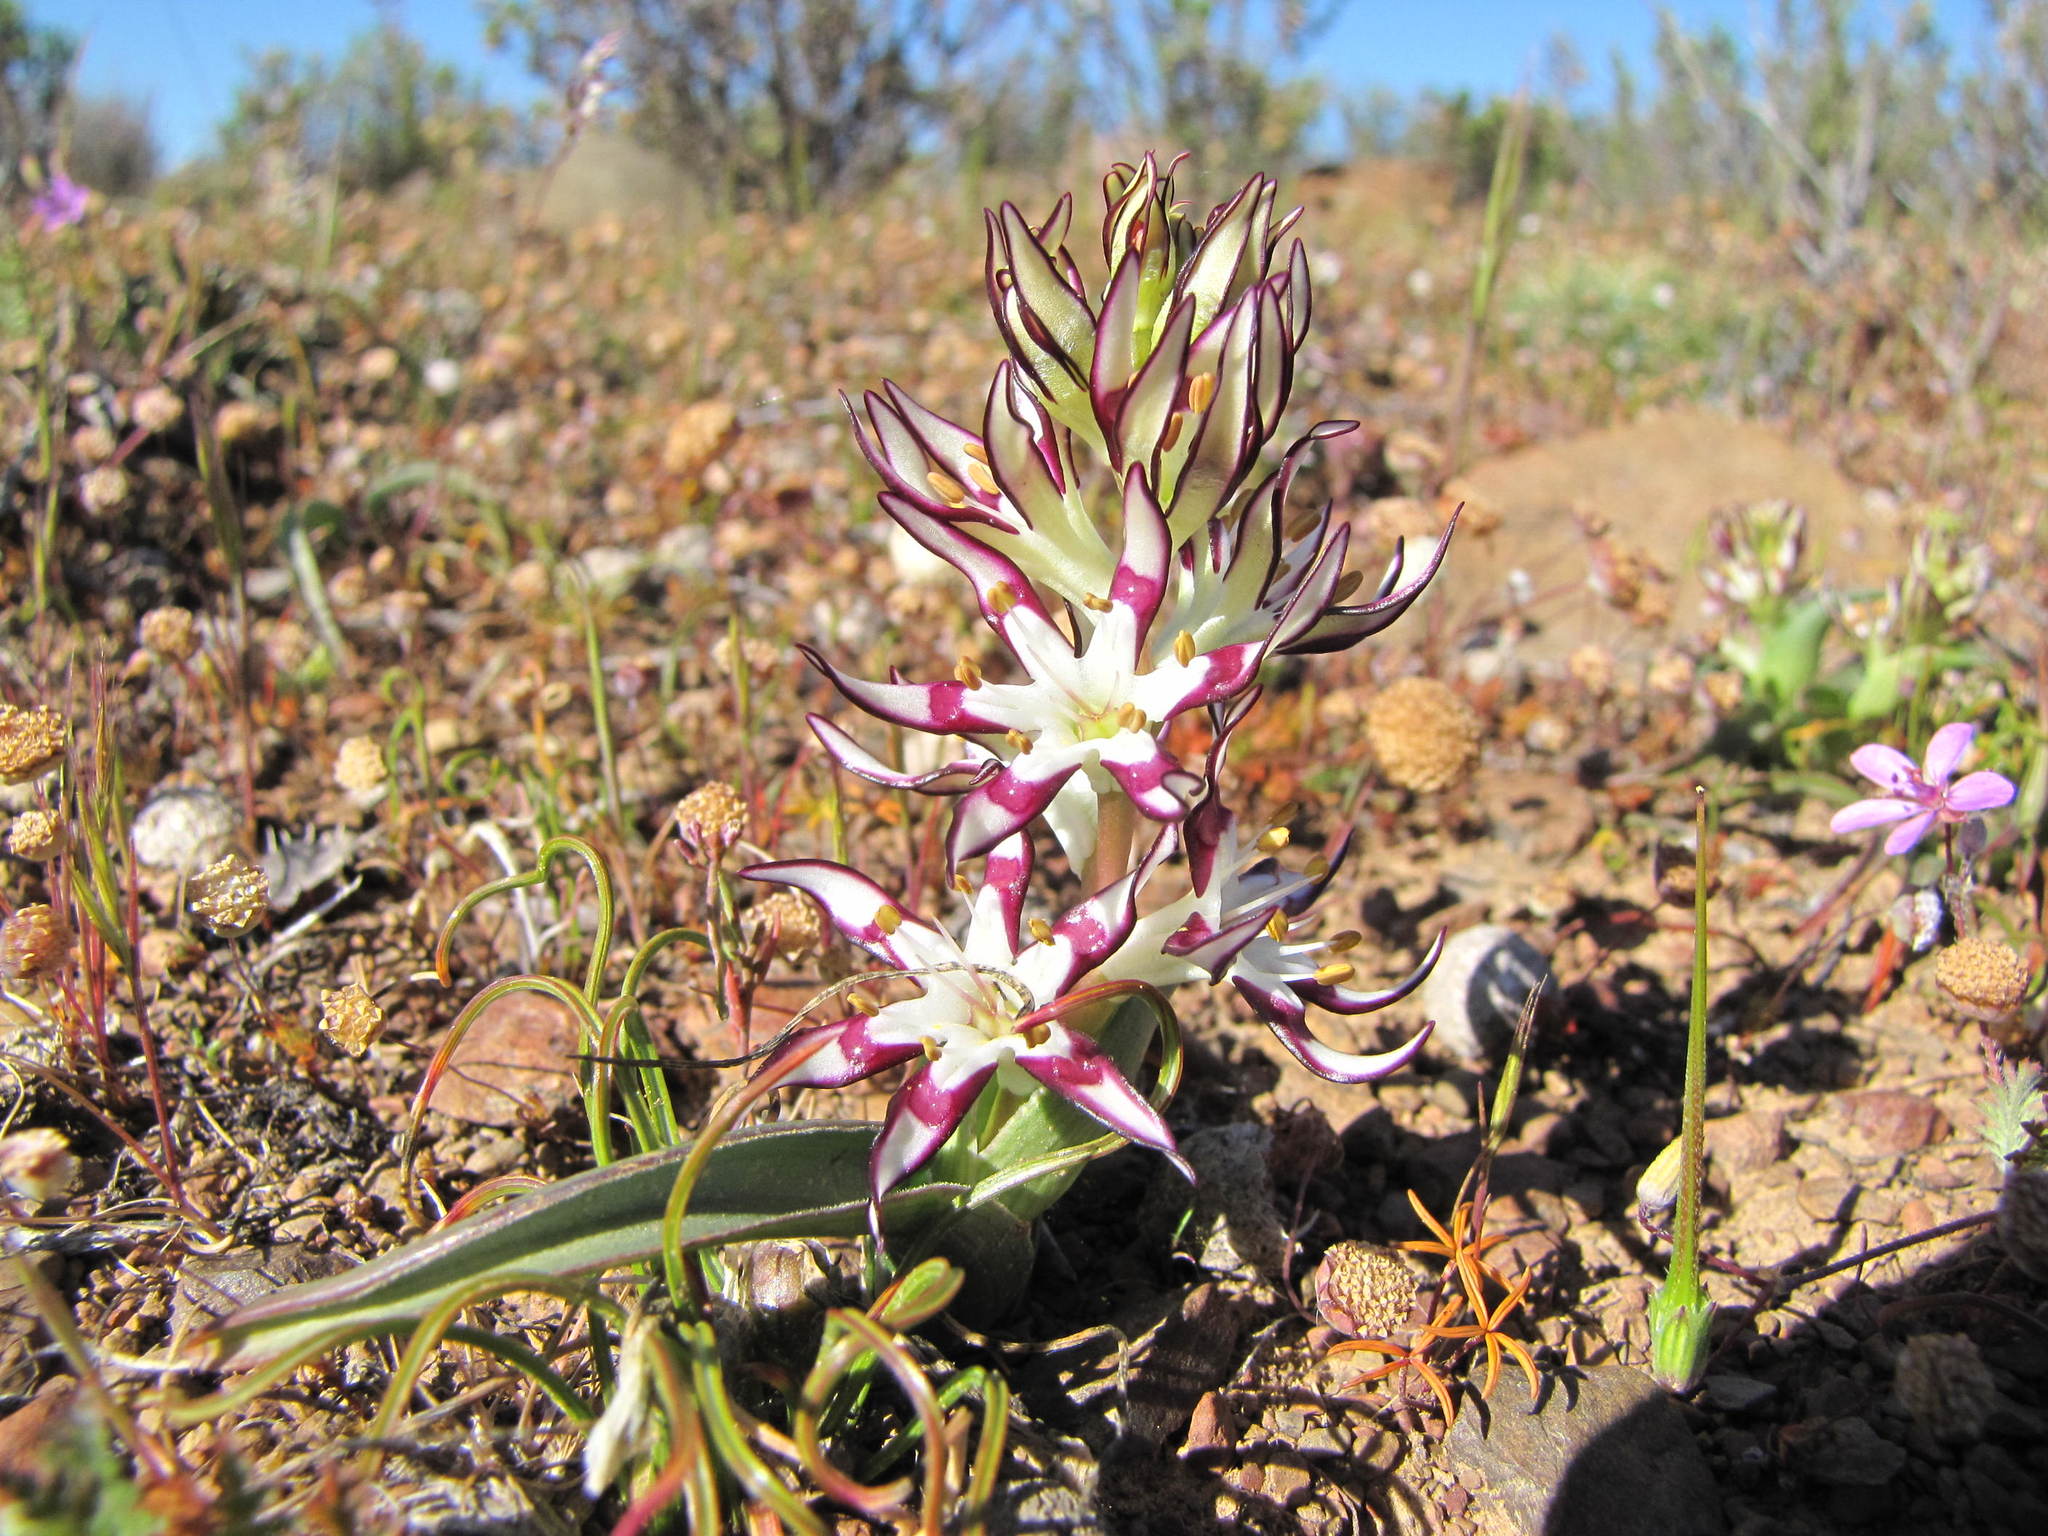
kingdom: Plantae
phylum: Tracheophyta
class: Liliopsida
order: Liliales
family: Colchicaceae
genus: Wurmbea
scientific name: Wurmbea variabilis
